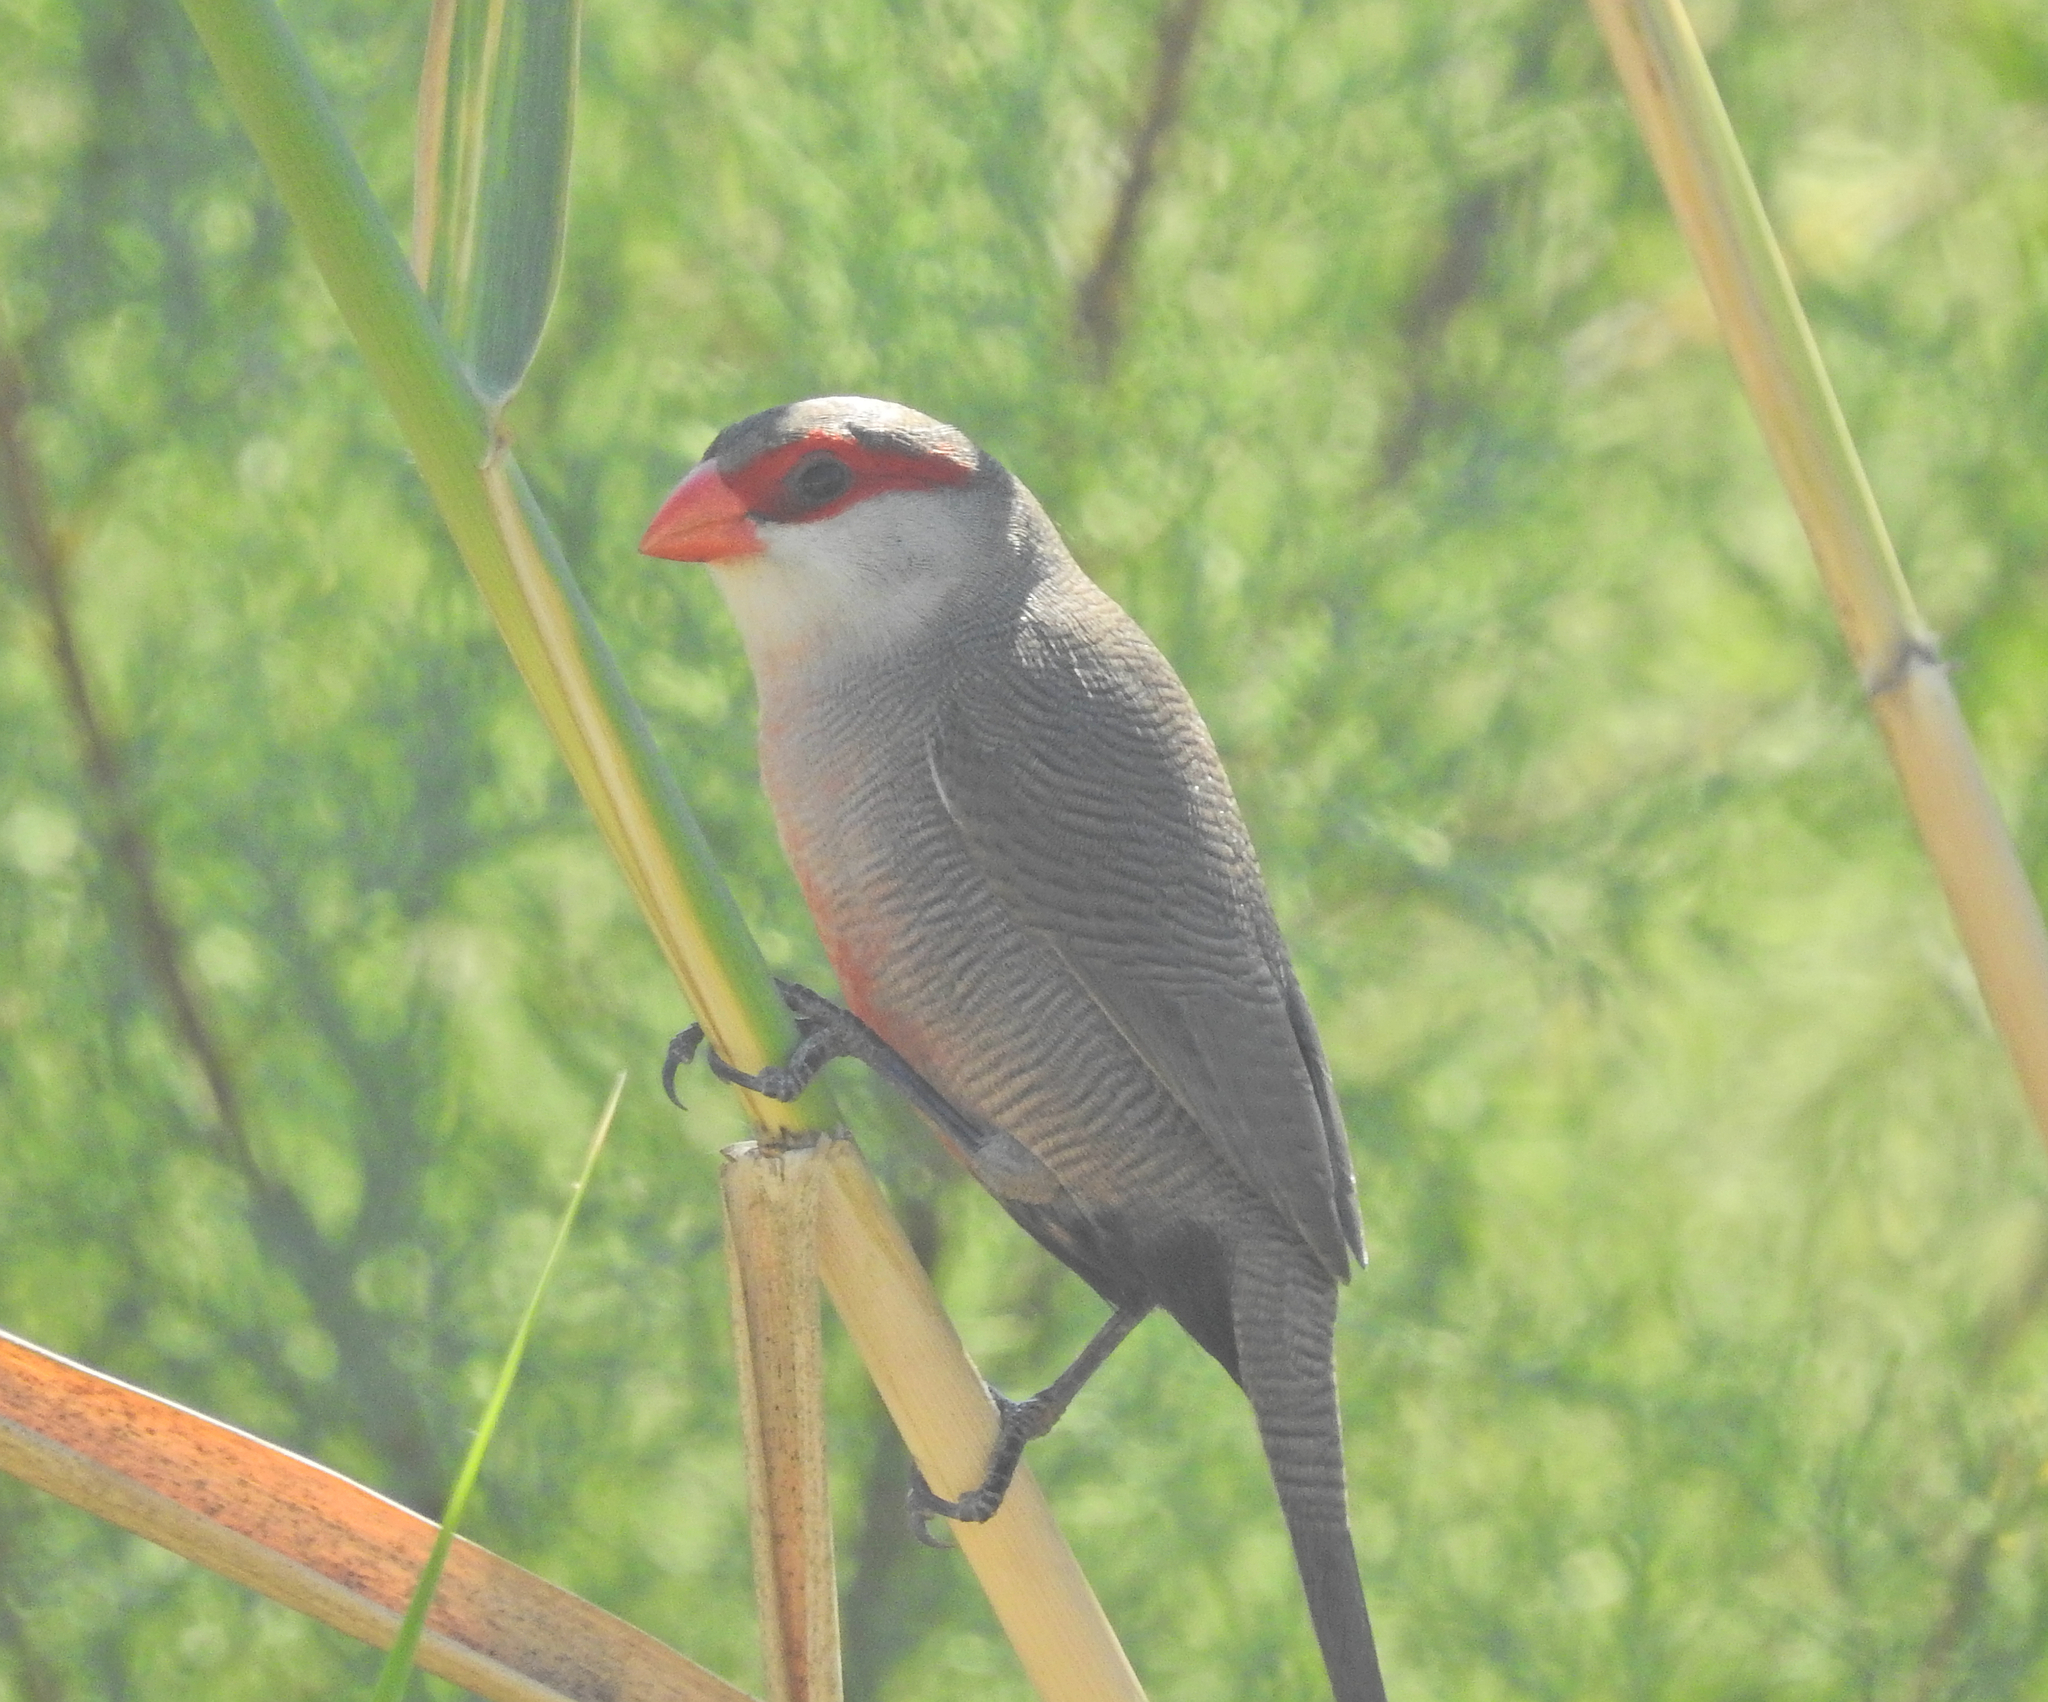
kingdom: Animalia
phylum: Chordata
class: Aves
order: Passeriformes
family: Estrildidae
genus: Estrilda
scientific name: Estrilda astrild
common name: Common waxbill
